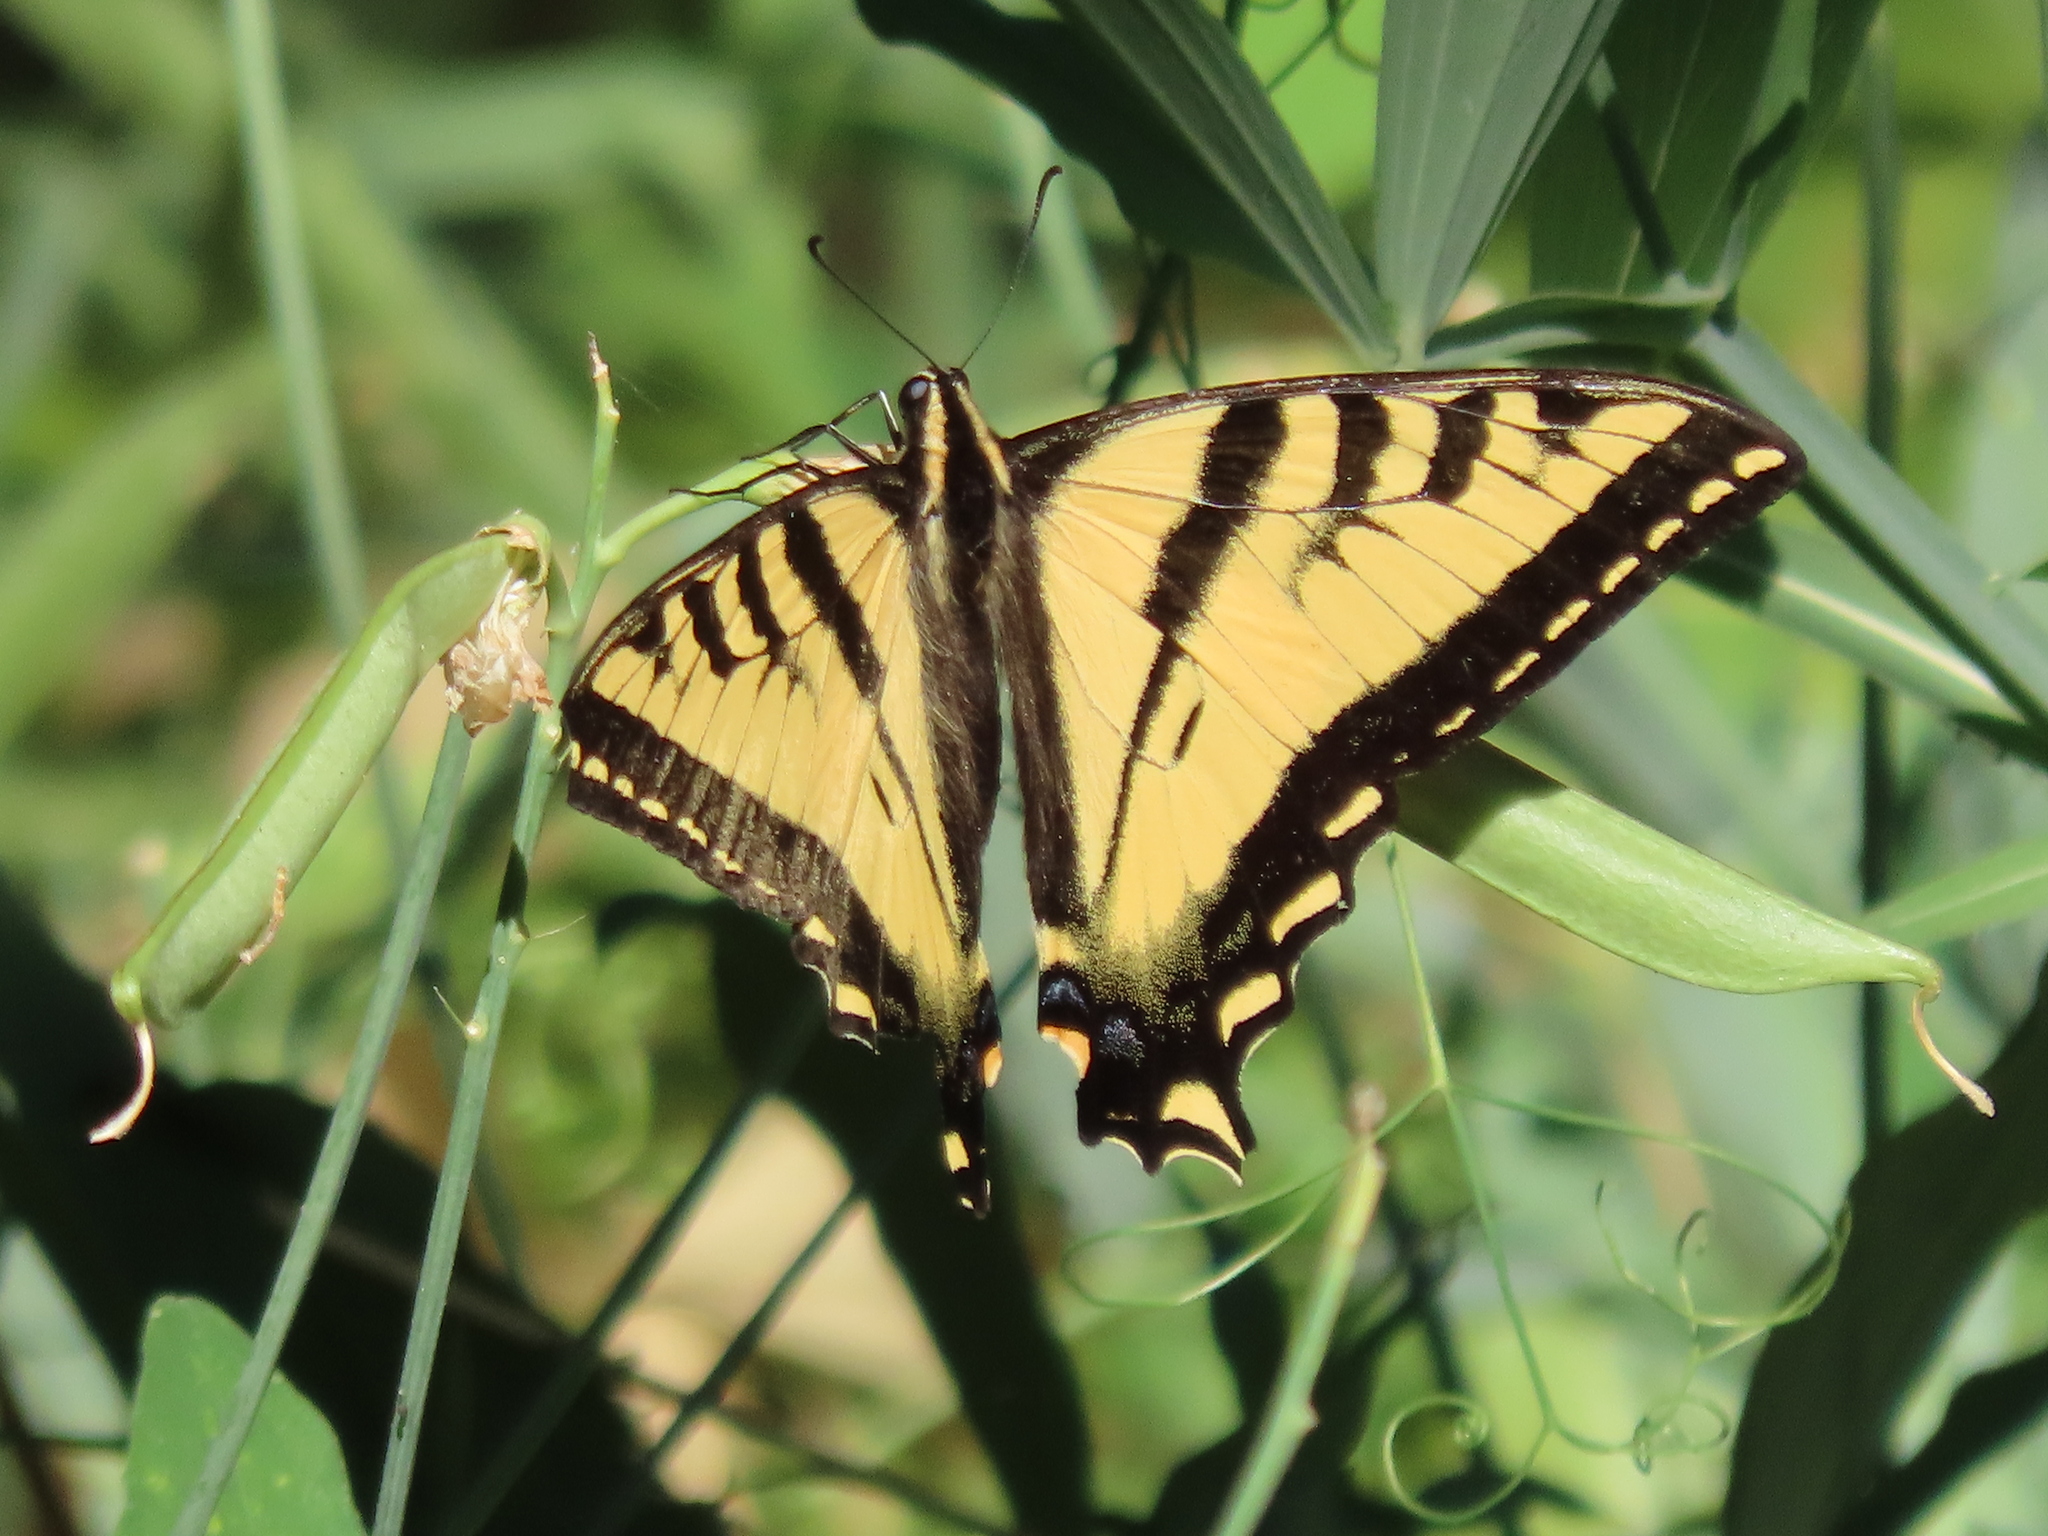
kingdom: Animalia
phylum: Arthropoda
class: Insecta
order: Lepidoptera
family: Papilionidae
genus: Papilio
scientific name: Papilio rutulus
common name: Western tiger swallowtail
